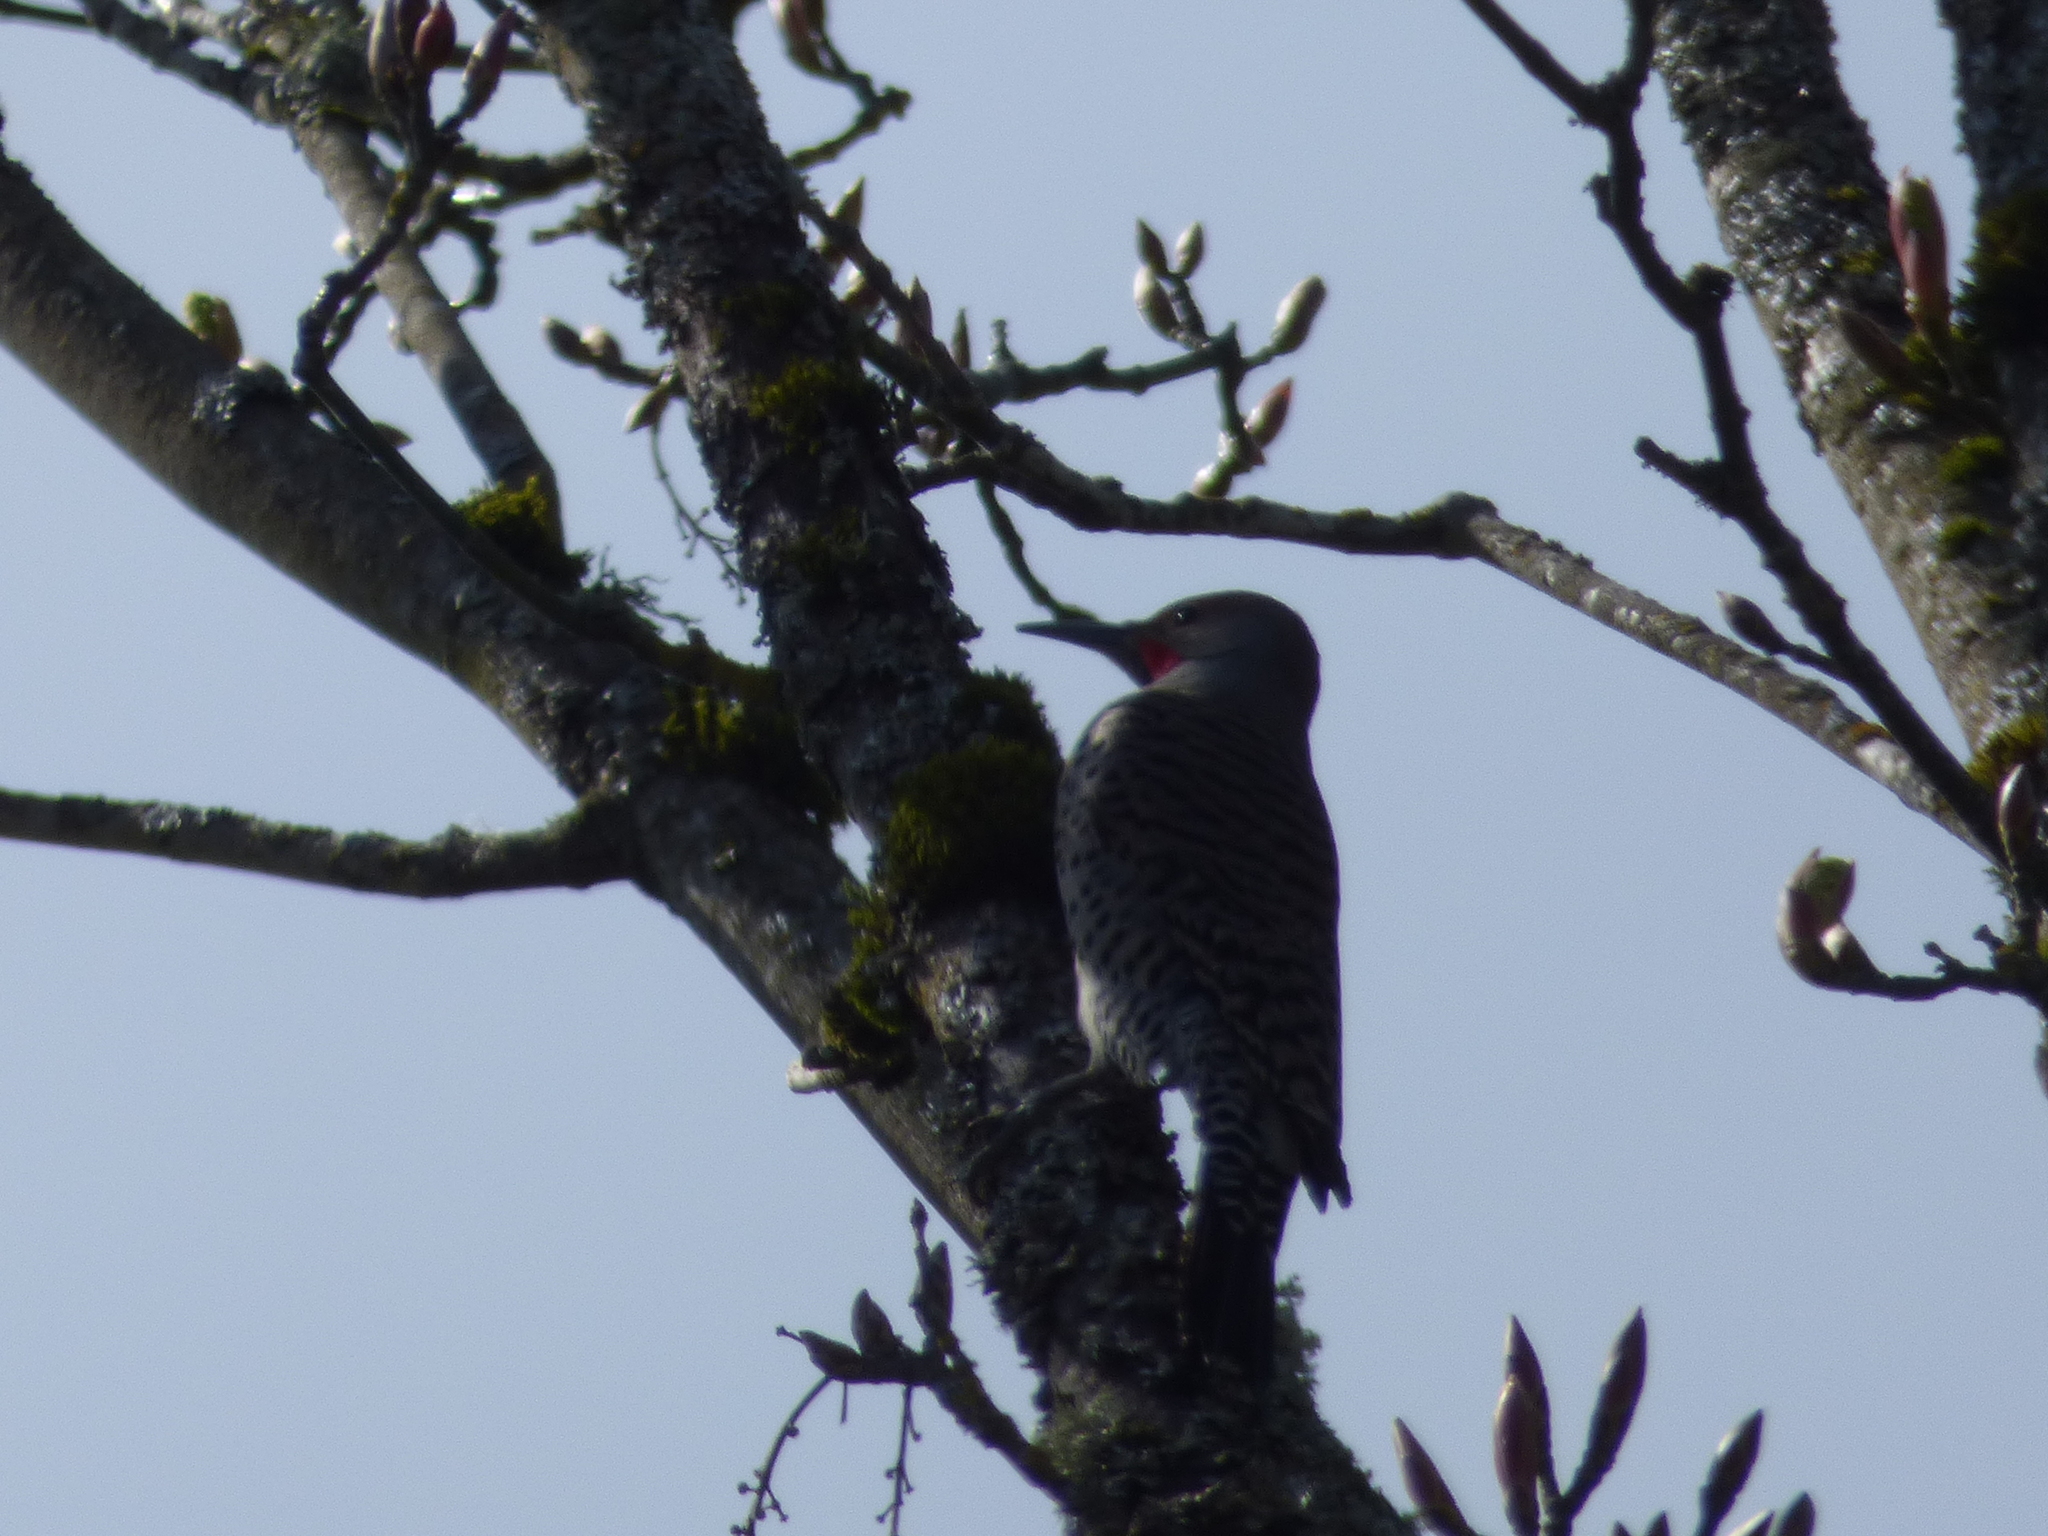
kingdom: Animalia
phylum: Chordata
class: Aves
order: Piciformes
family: Picidae
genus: Colaptes
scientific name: Colaptes auratus
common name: Northern flicker
